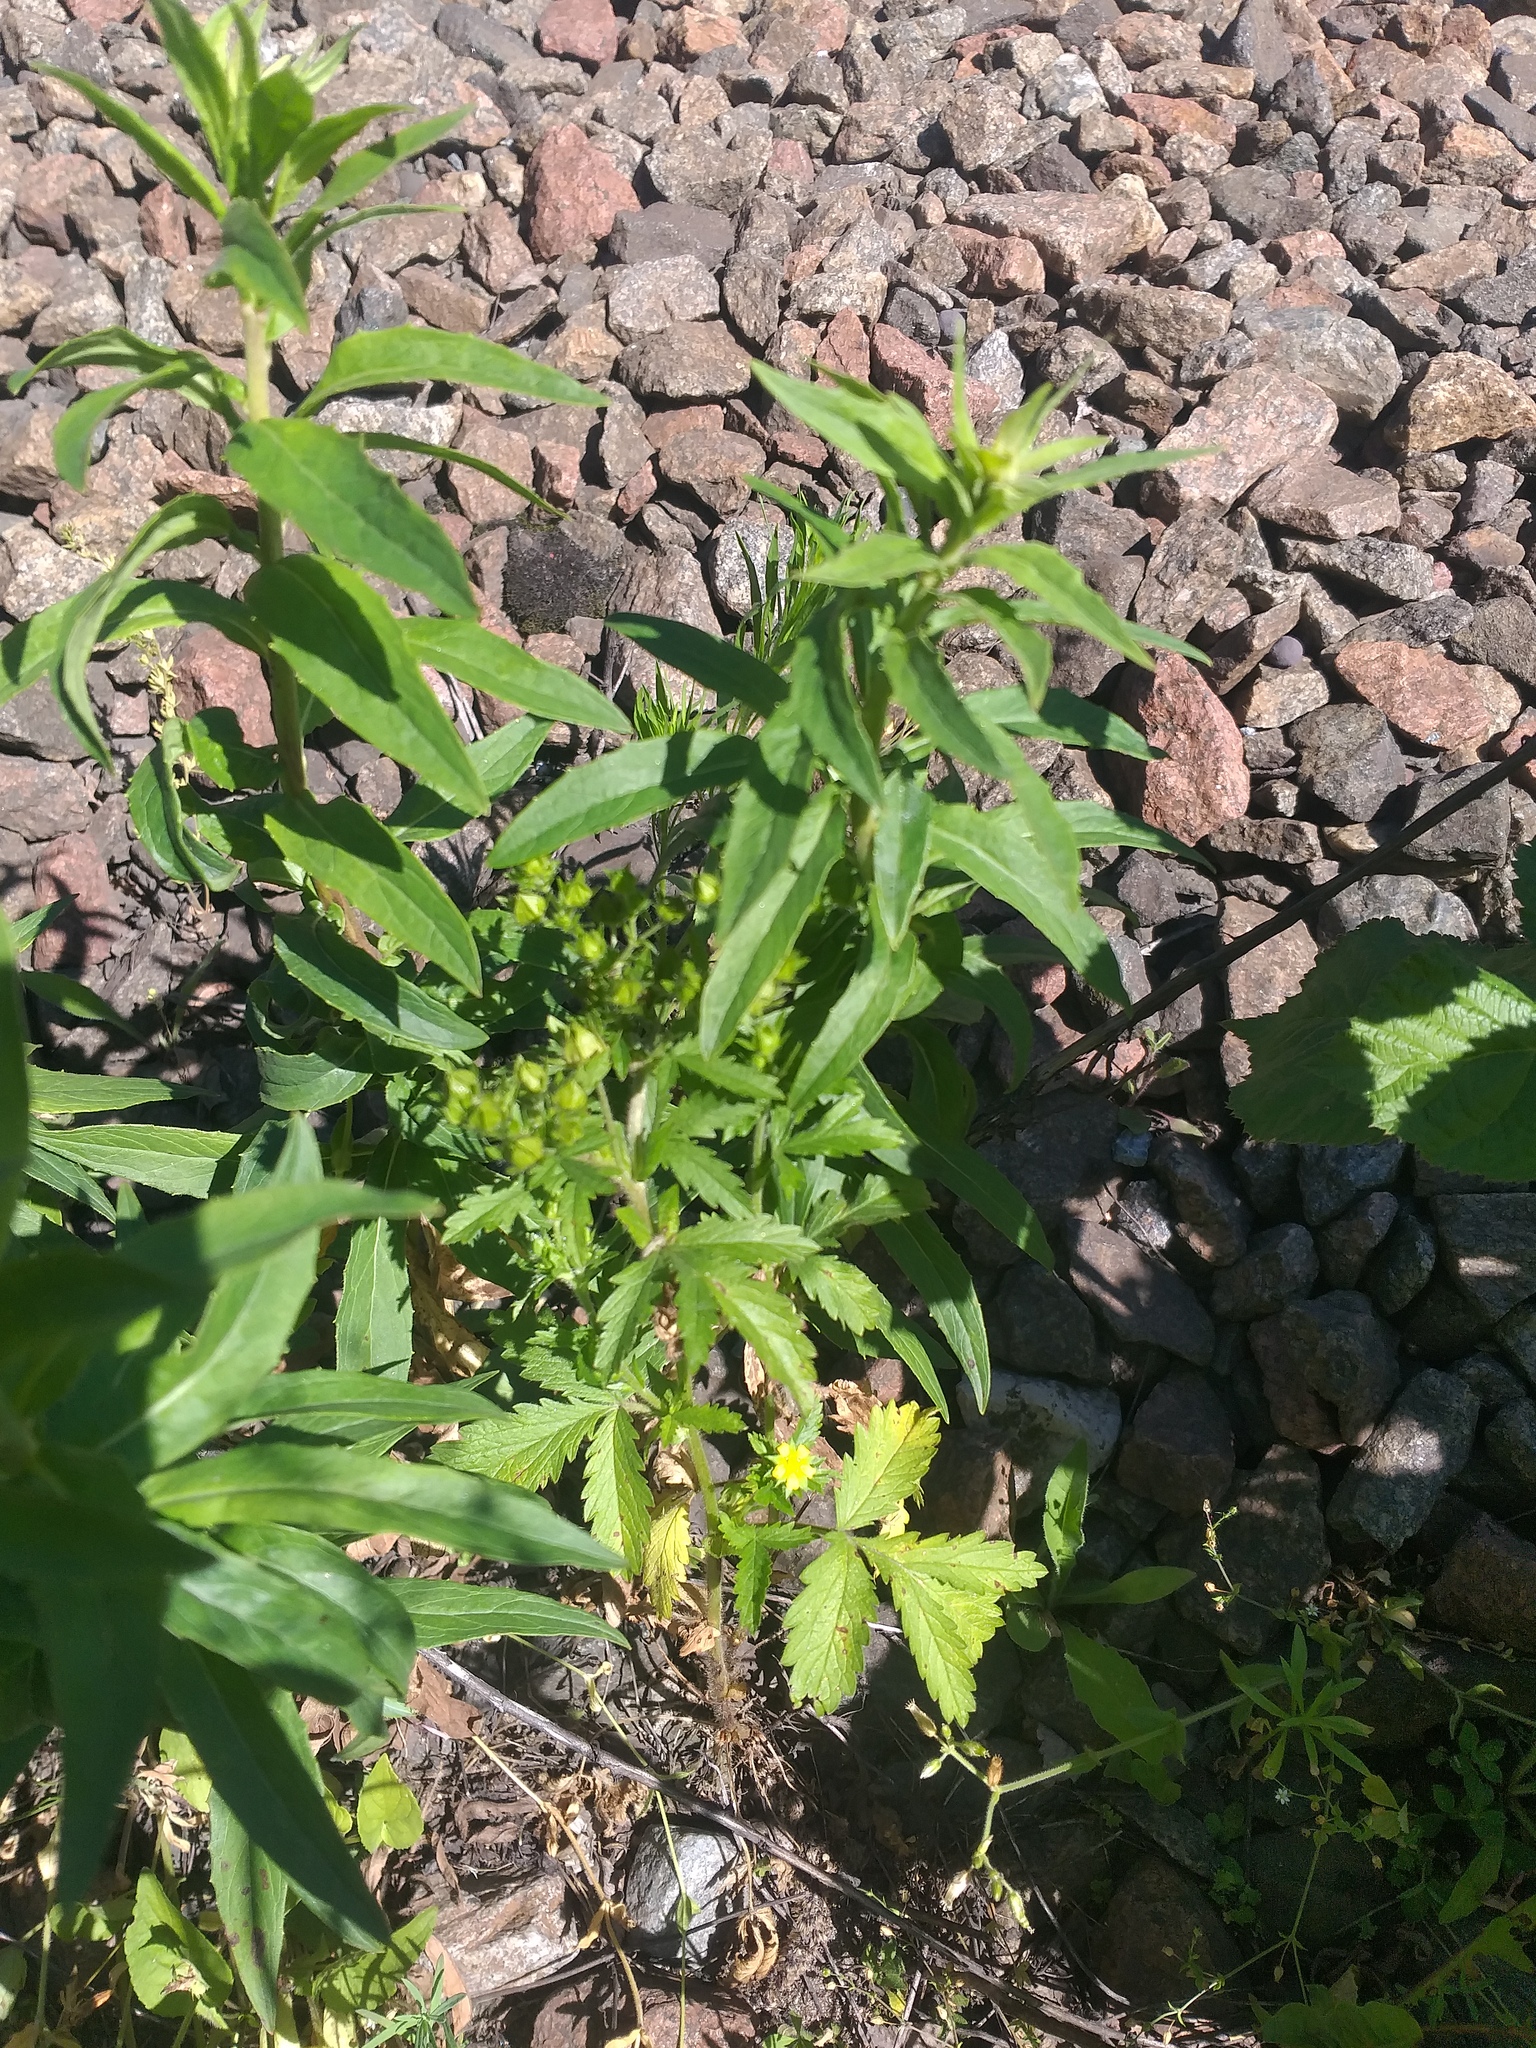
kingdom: Plantae
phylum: Tracheophyta
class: Magnoliopsida
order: Rosales
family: Rosaceae
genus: Potentilla
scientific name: Potentilla norvegica
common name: Ternate-leaved cinquefoil
